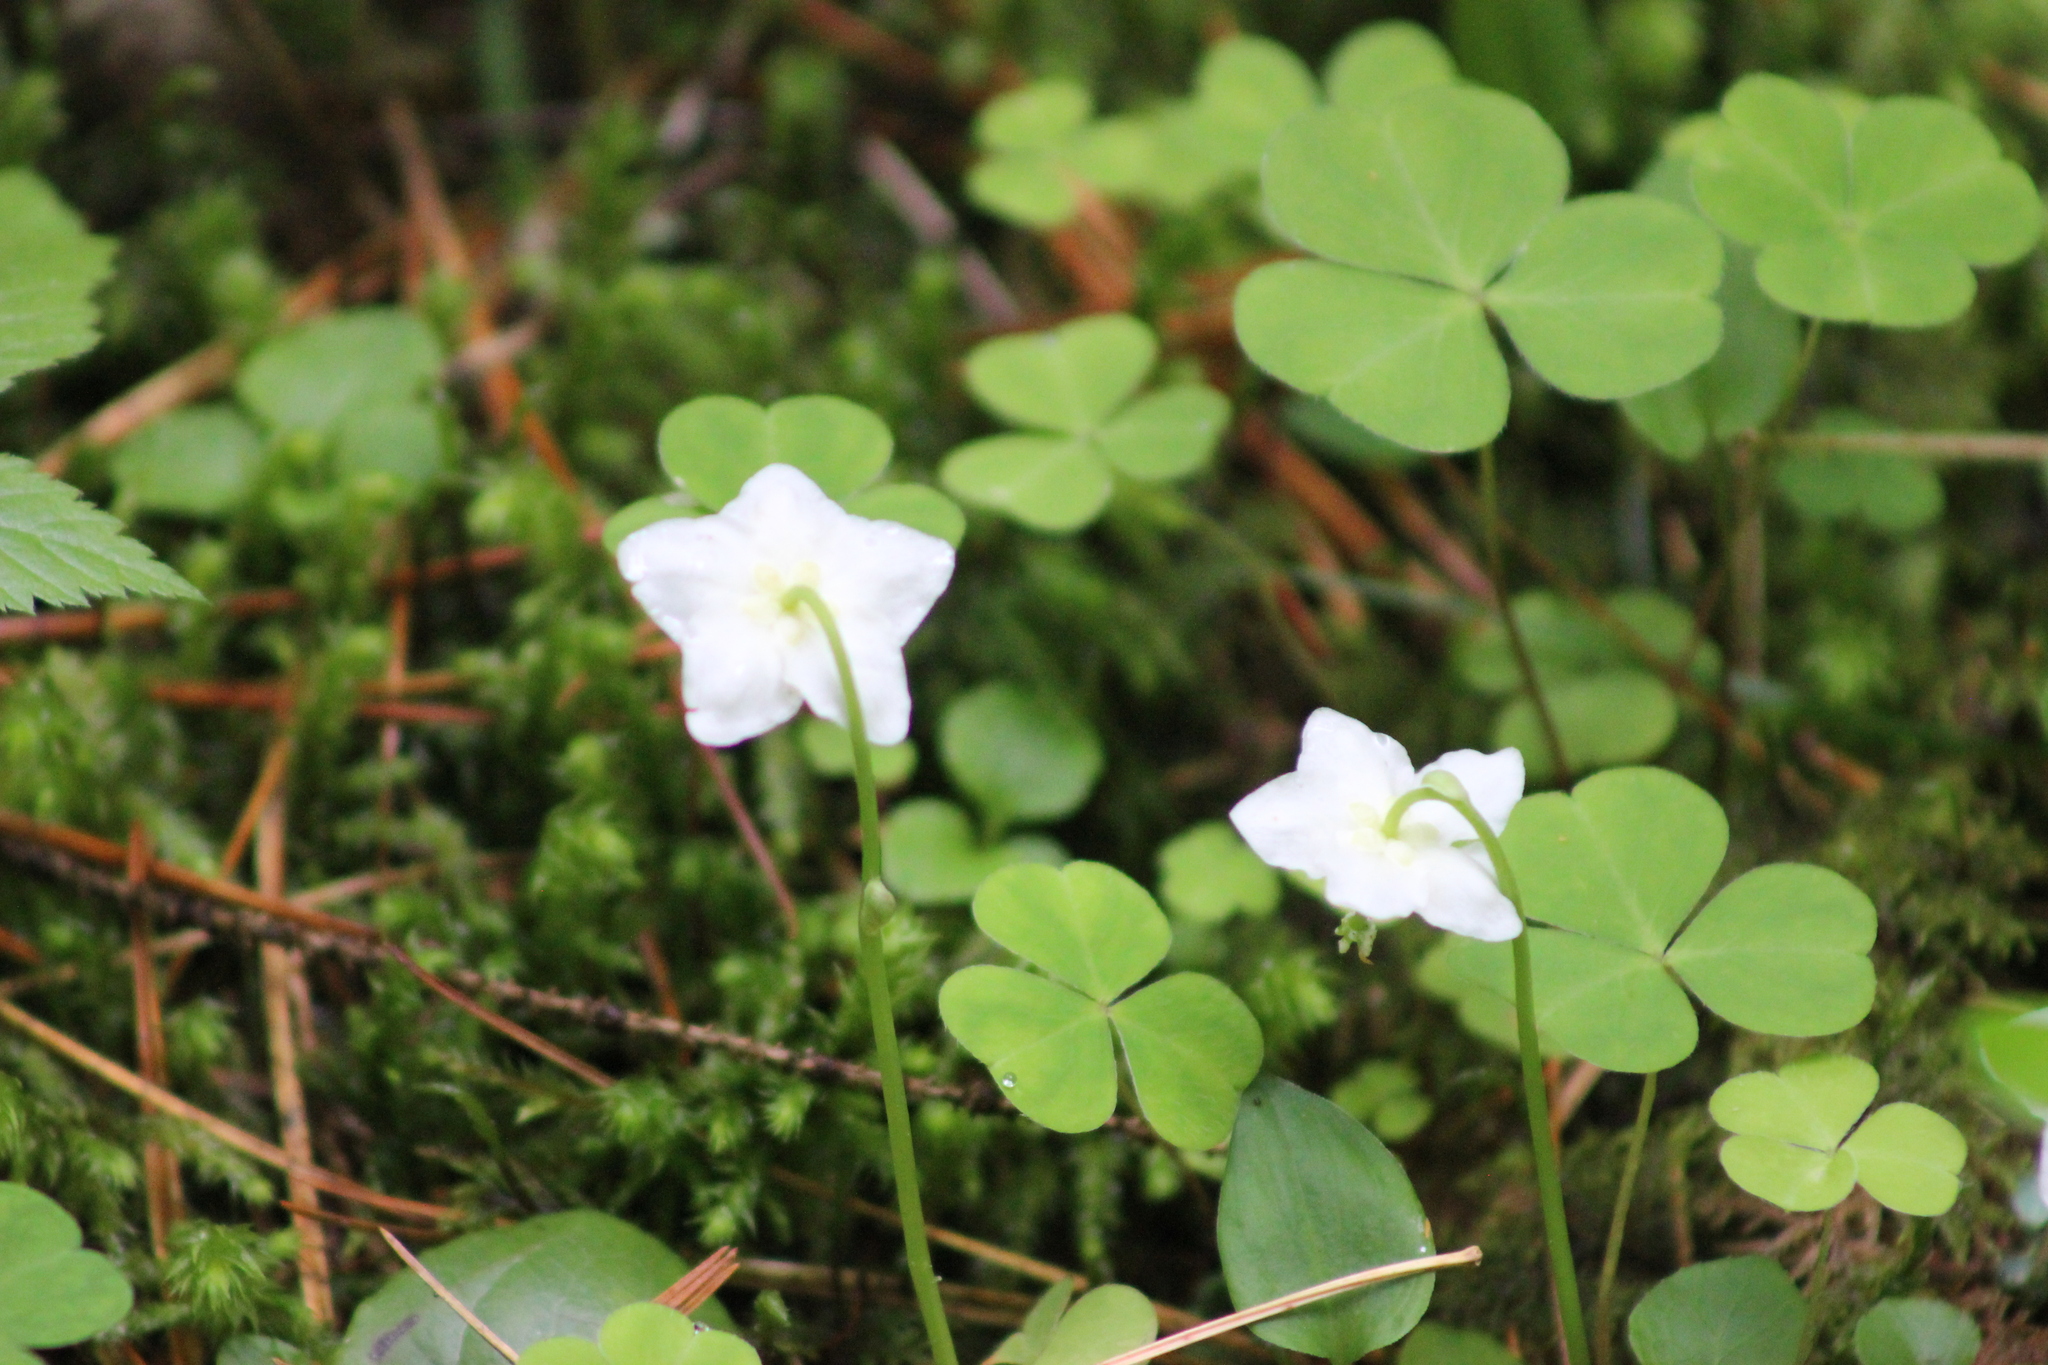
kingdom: Plantae
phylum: Tracheophyta
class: Magnoliopsida
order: Ericales
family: Ericaceae
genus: Moneses
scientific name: Moneses uniflora
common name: One-flowered wintergreen
